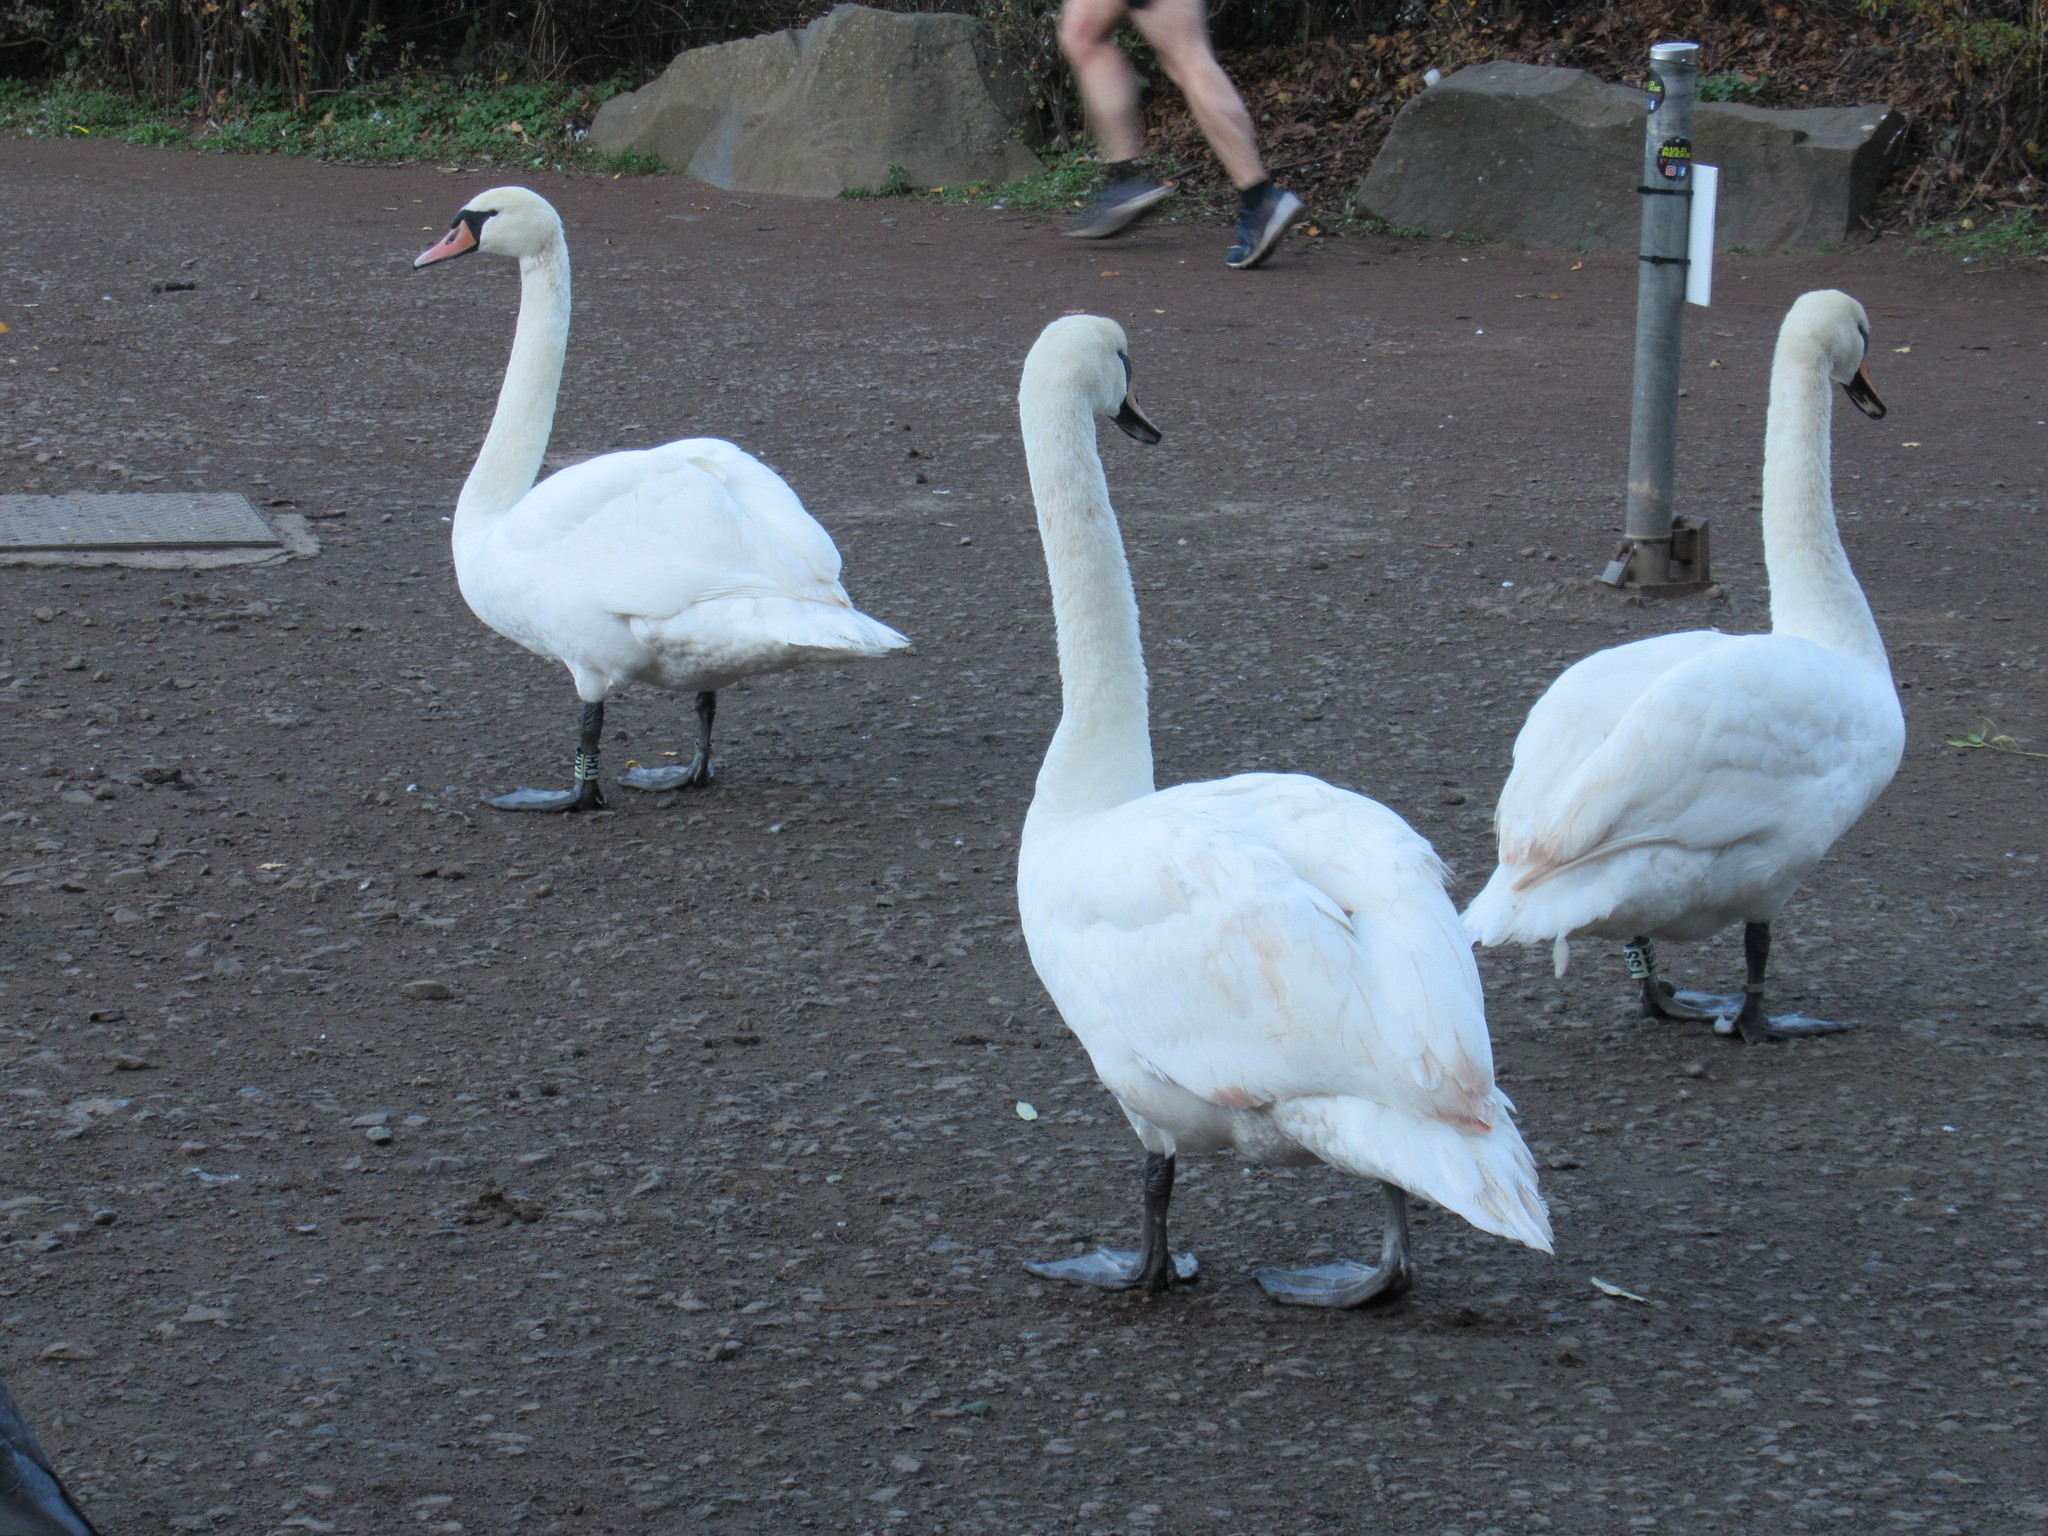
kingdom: Animalia
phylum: Chordata
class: Aves
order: Anseriformes
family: Anatidae
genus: Cygnus
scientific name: Cygnus olor
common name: Mute swan
